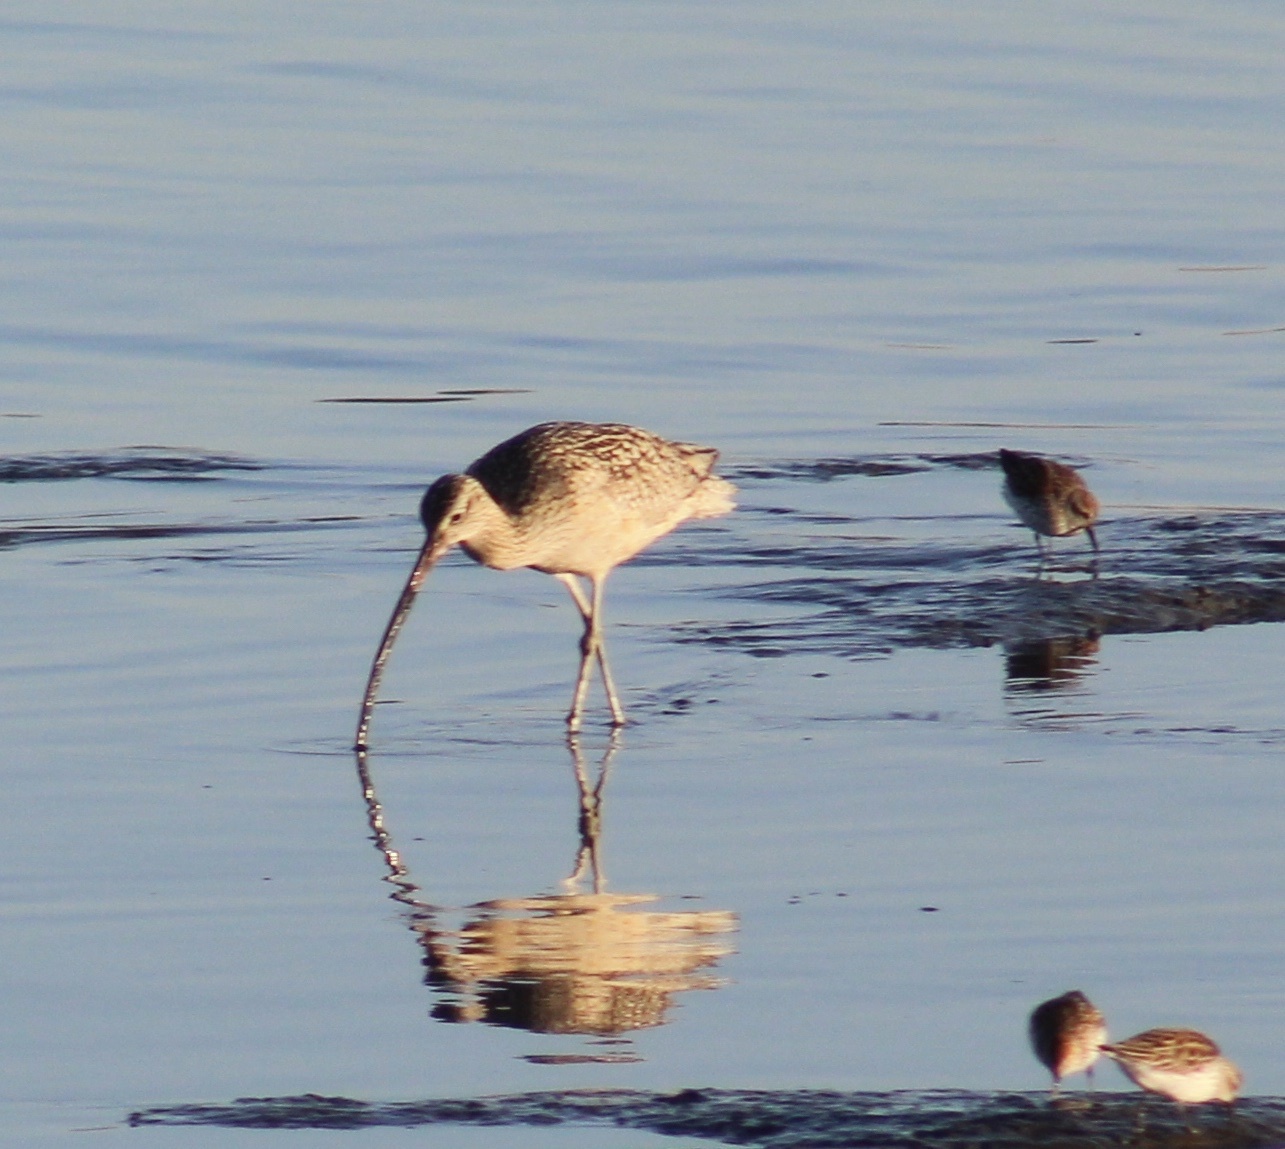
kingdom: Animalia
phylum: Chordata
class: Aves
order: Charadriiformes
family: Scolopacidae
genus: Numenius
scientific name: Numenius americanus
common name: Long-billed curlew
